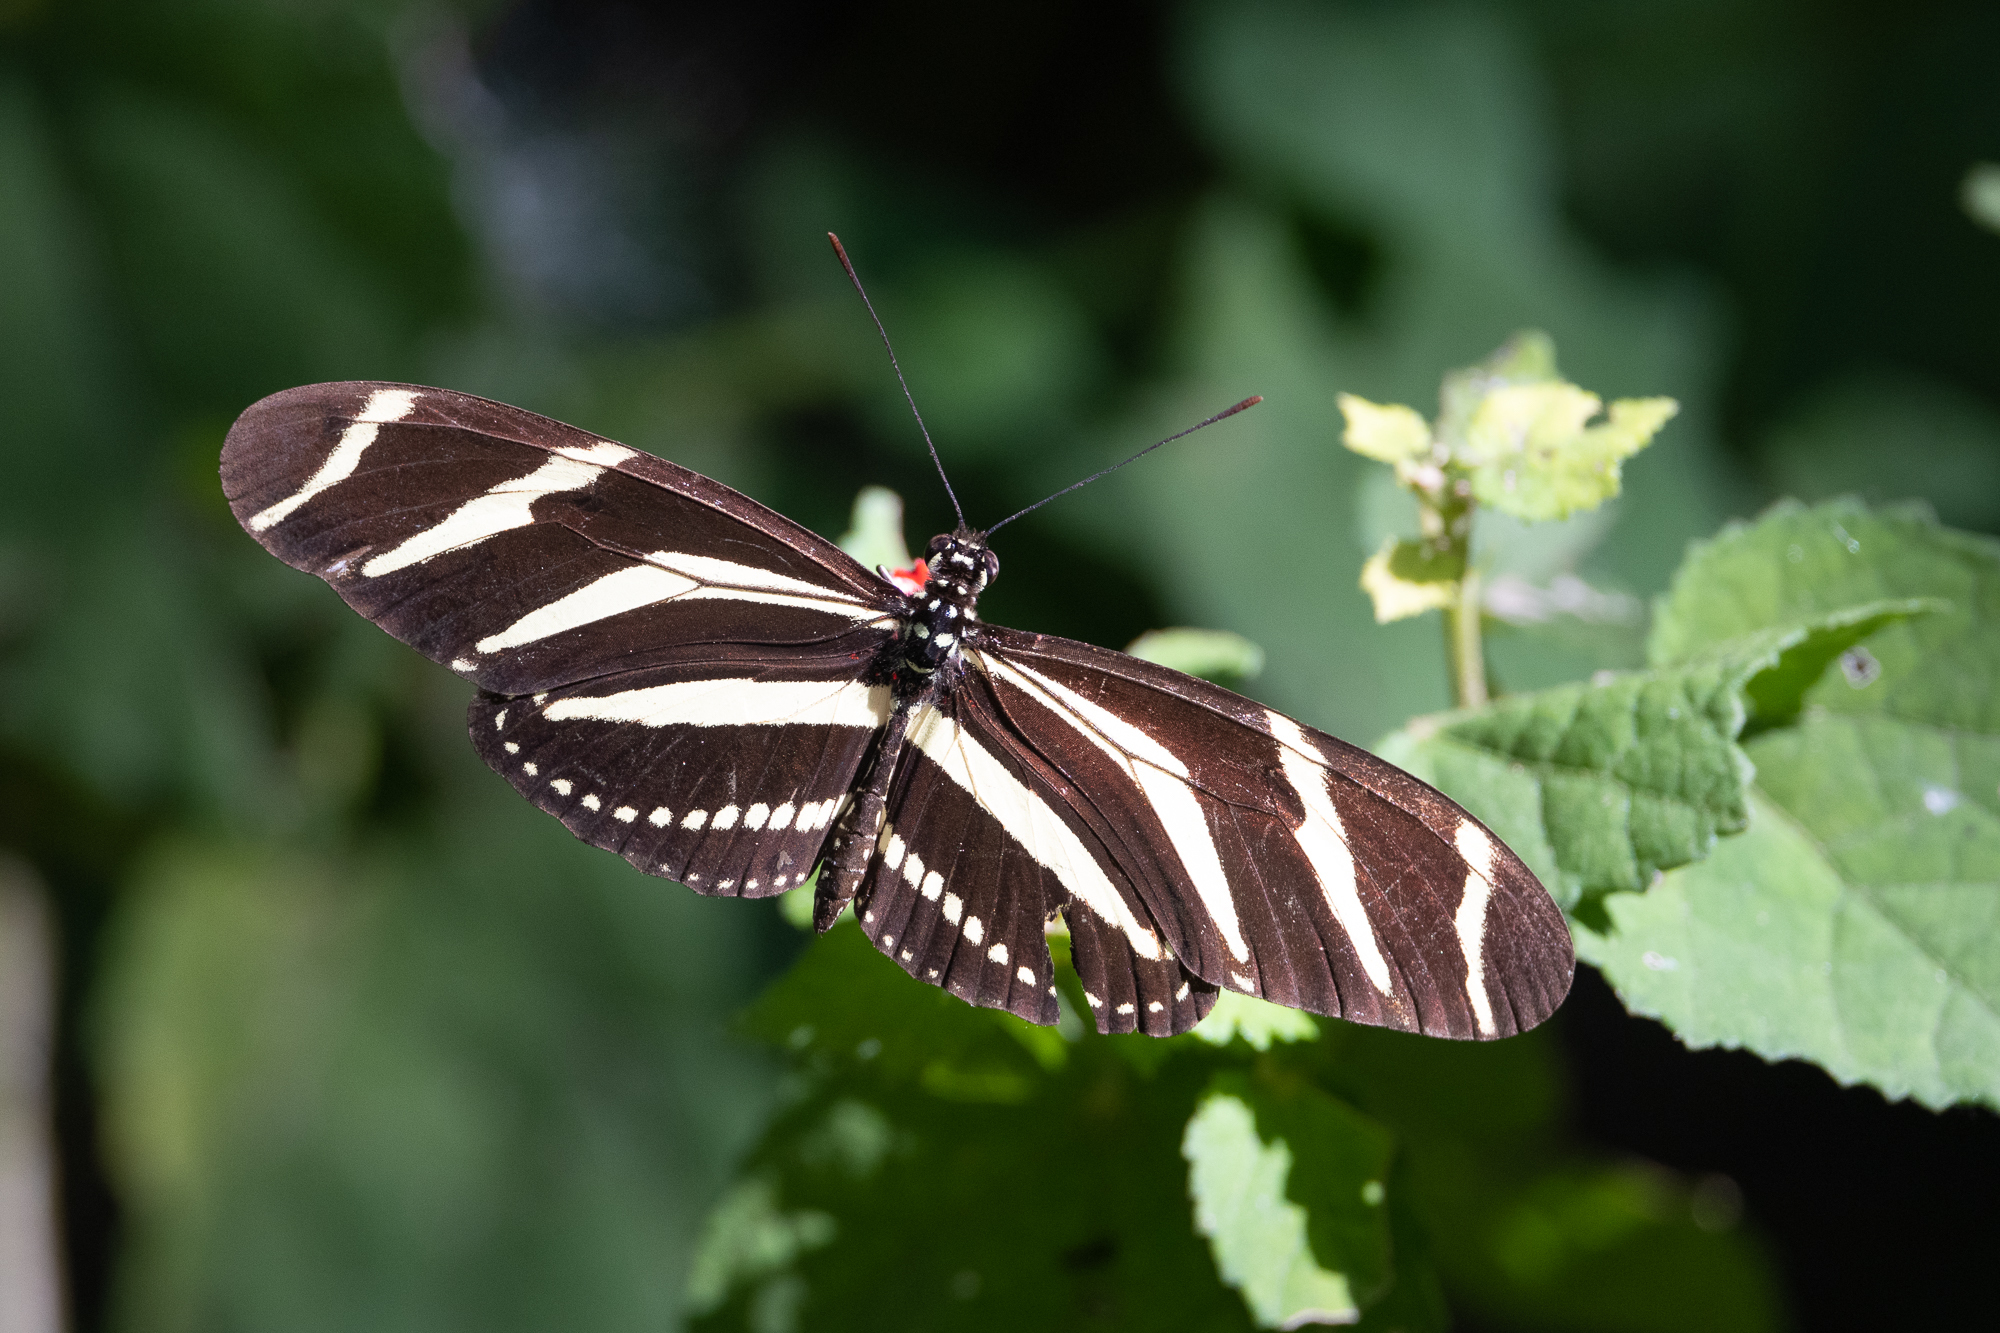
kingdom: Animalia
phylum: Arthropoda
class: Insecta
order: Lepidoptera
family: Nymphalidae
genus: Heliconius
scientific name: Heliconius charithonia
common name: Zebra long wing
